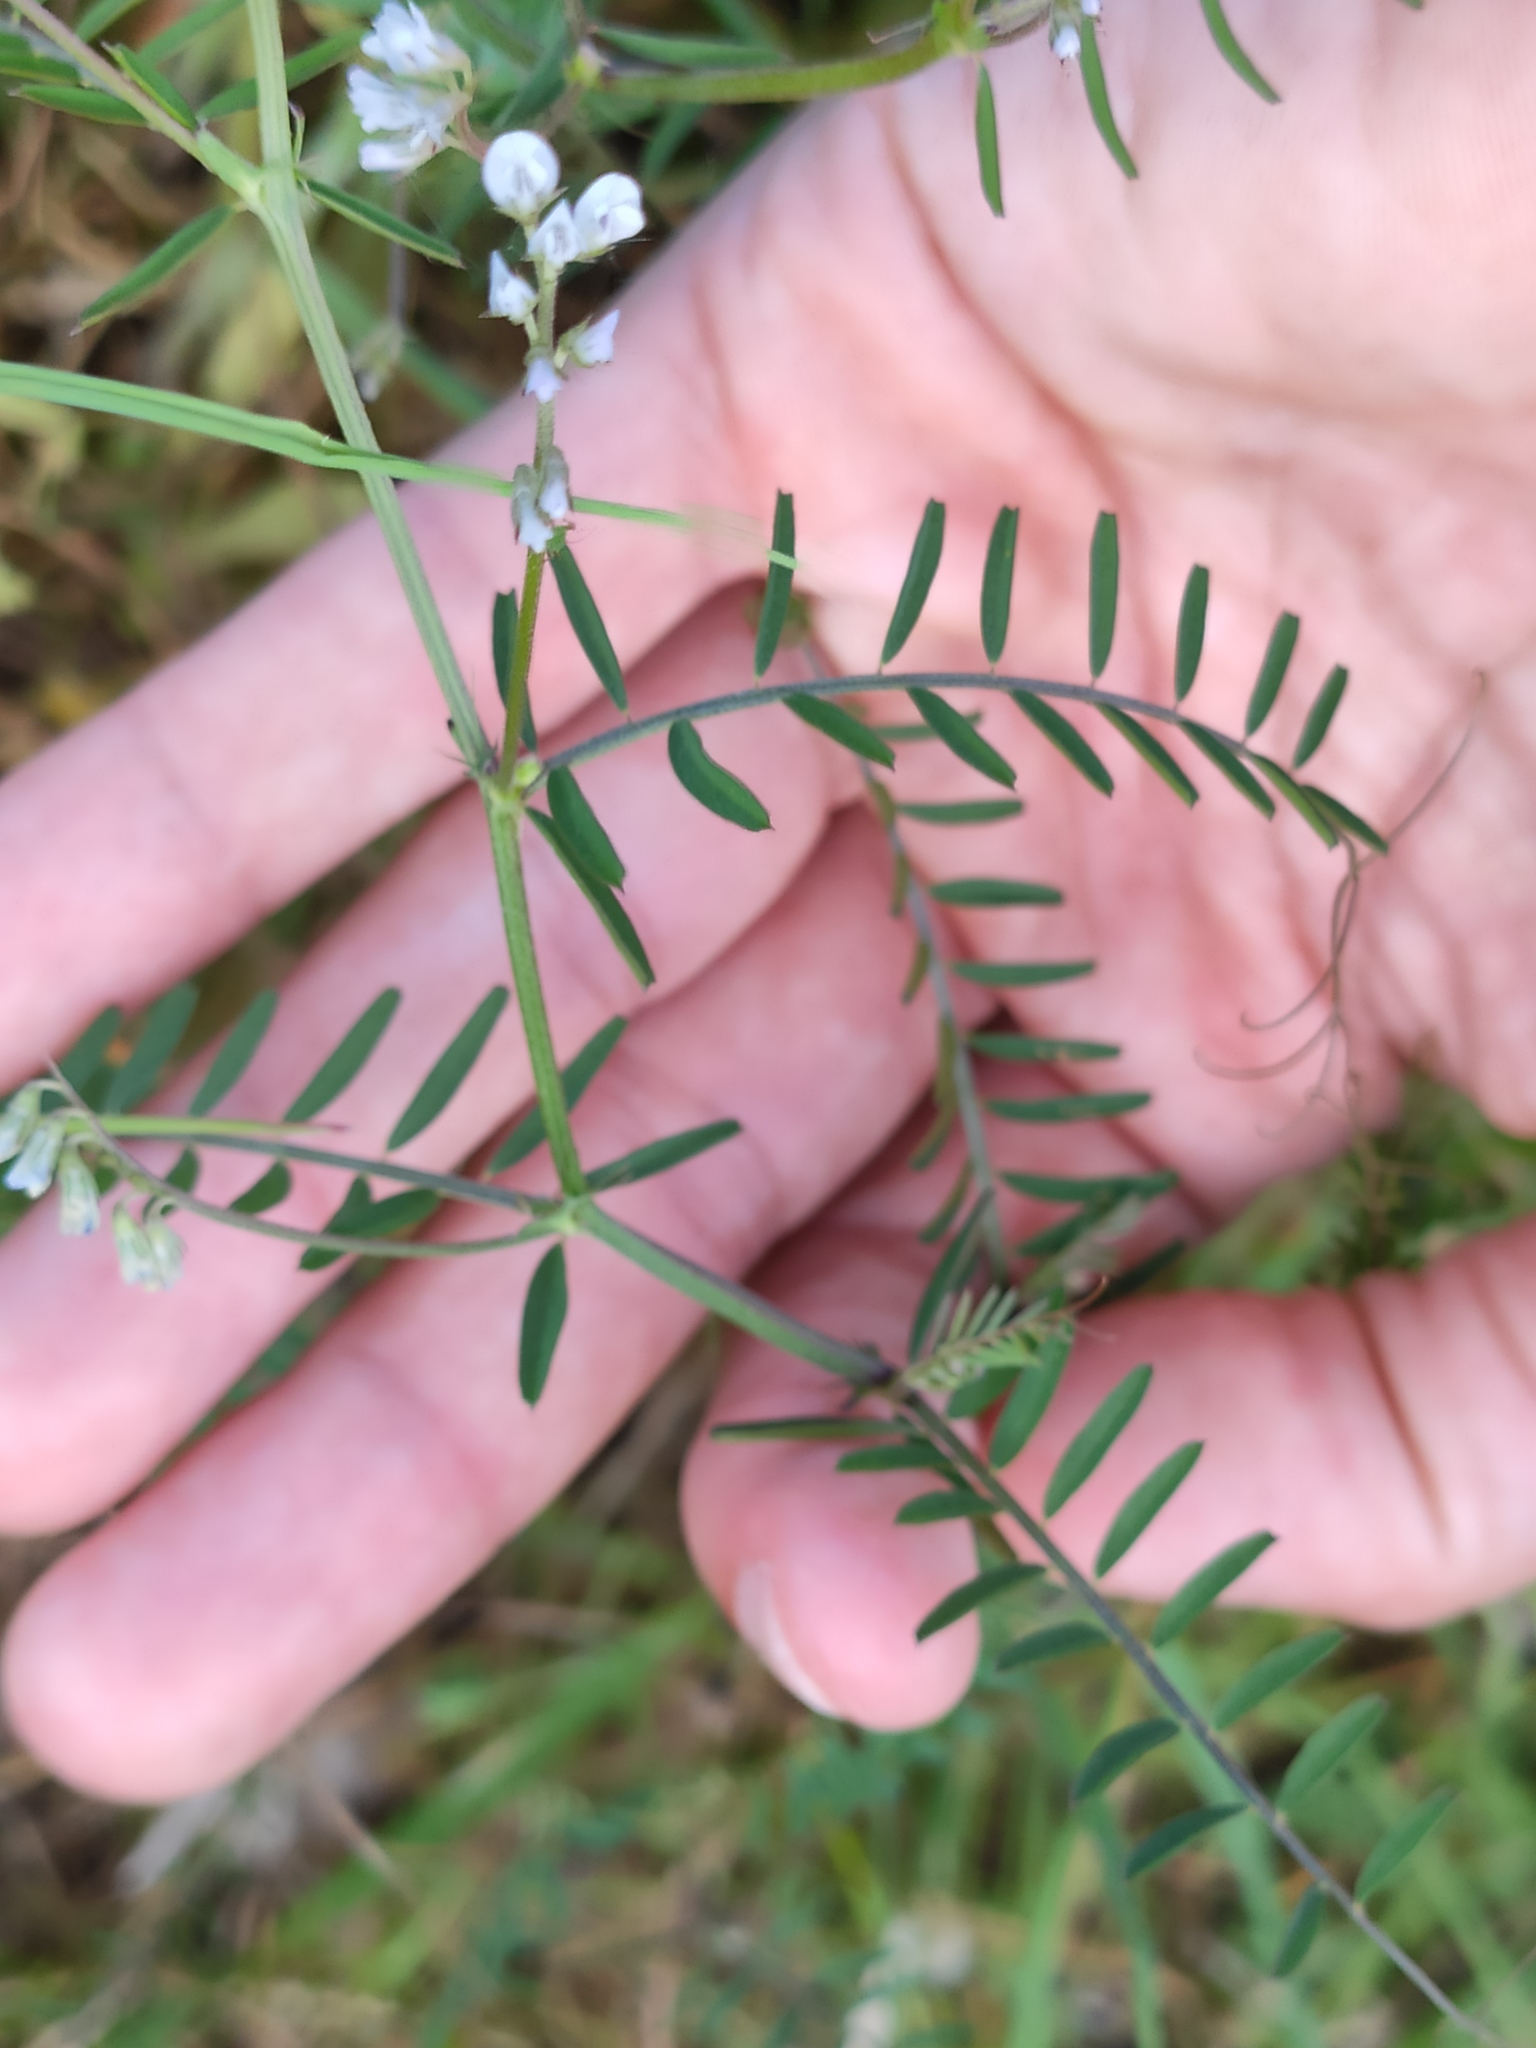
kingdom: Plantae
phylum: Tracheophyta
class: Magnoliopsida
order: Fabales
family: Fabaceae
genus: Vicia
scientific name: Vicia hirsuta
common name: Tiny vetch
